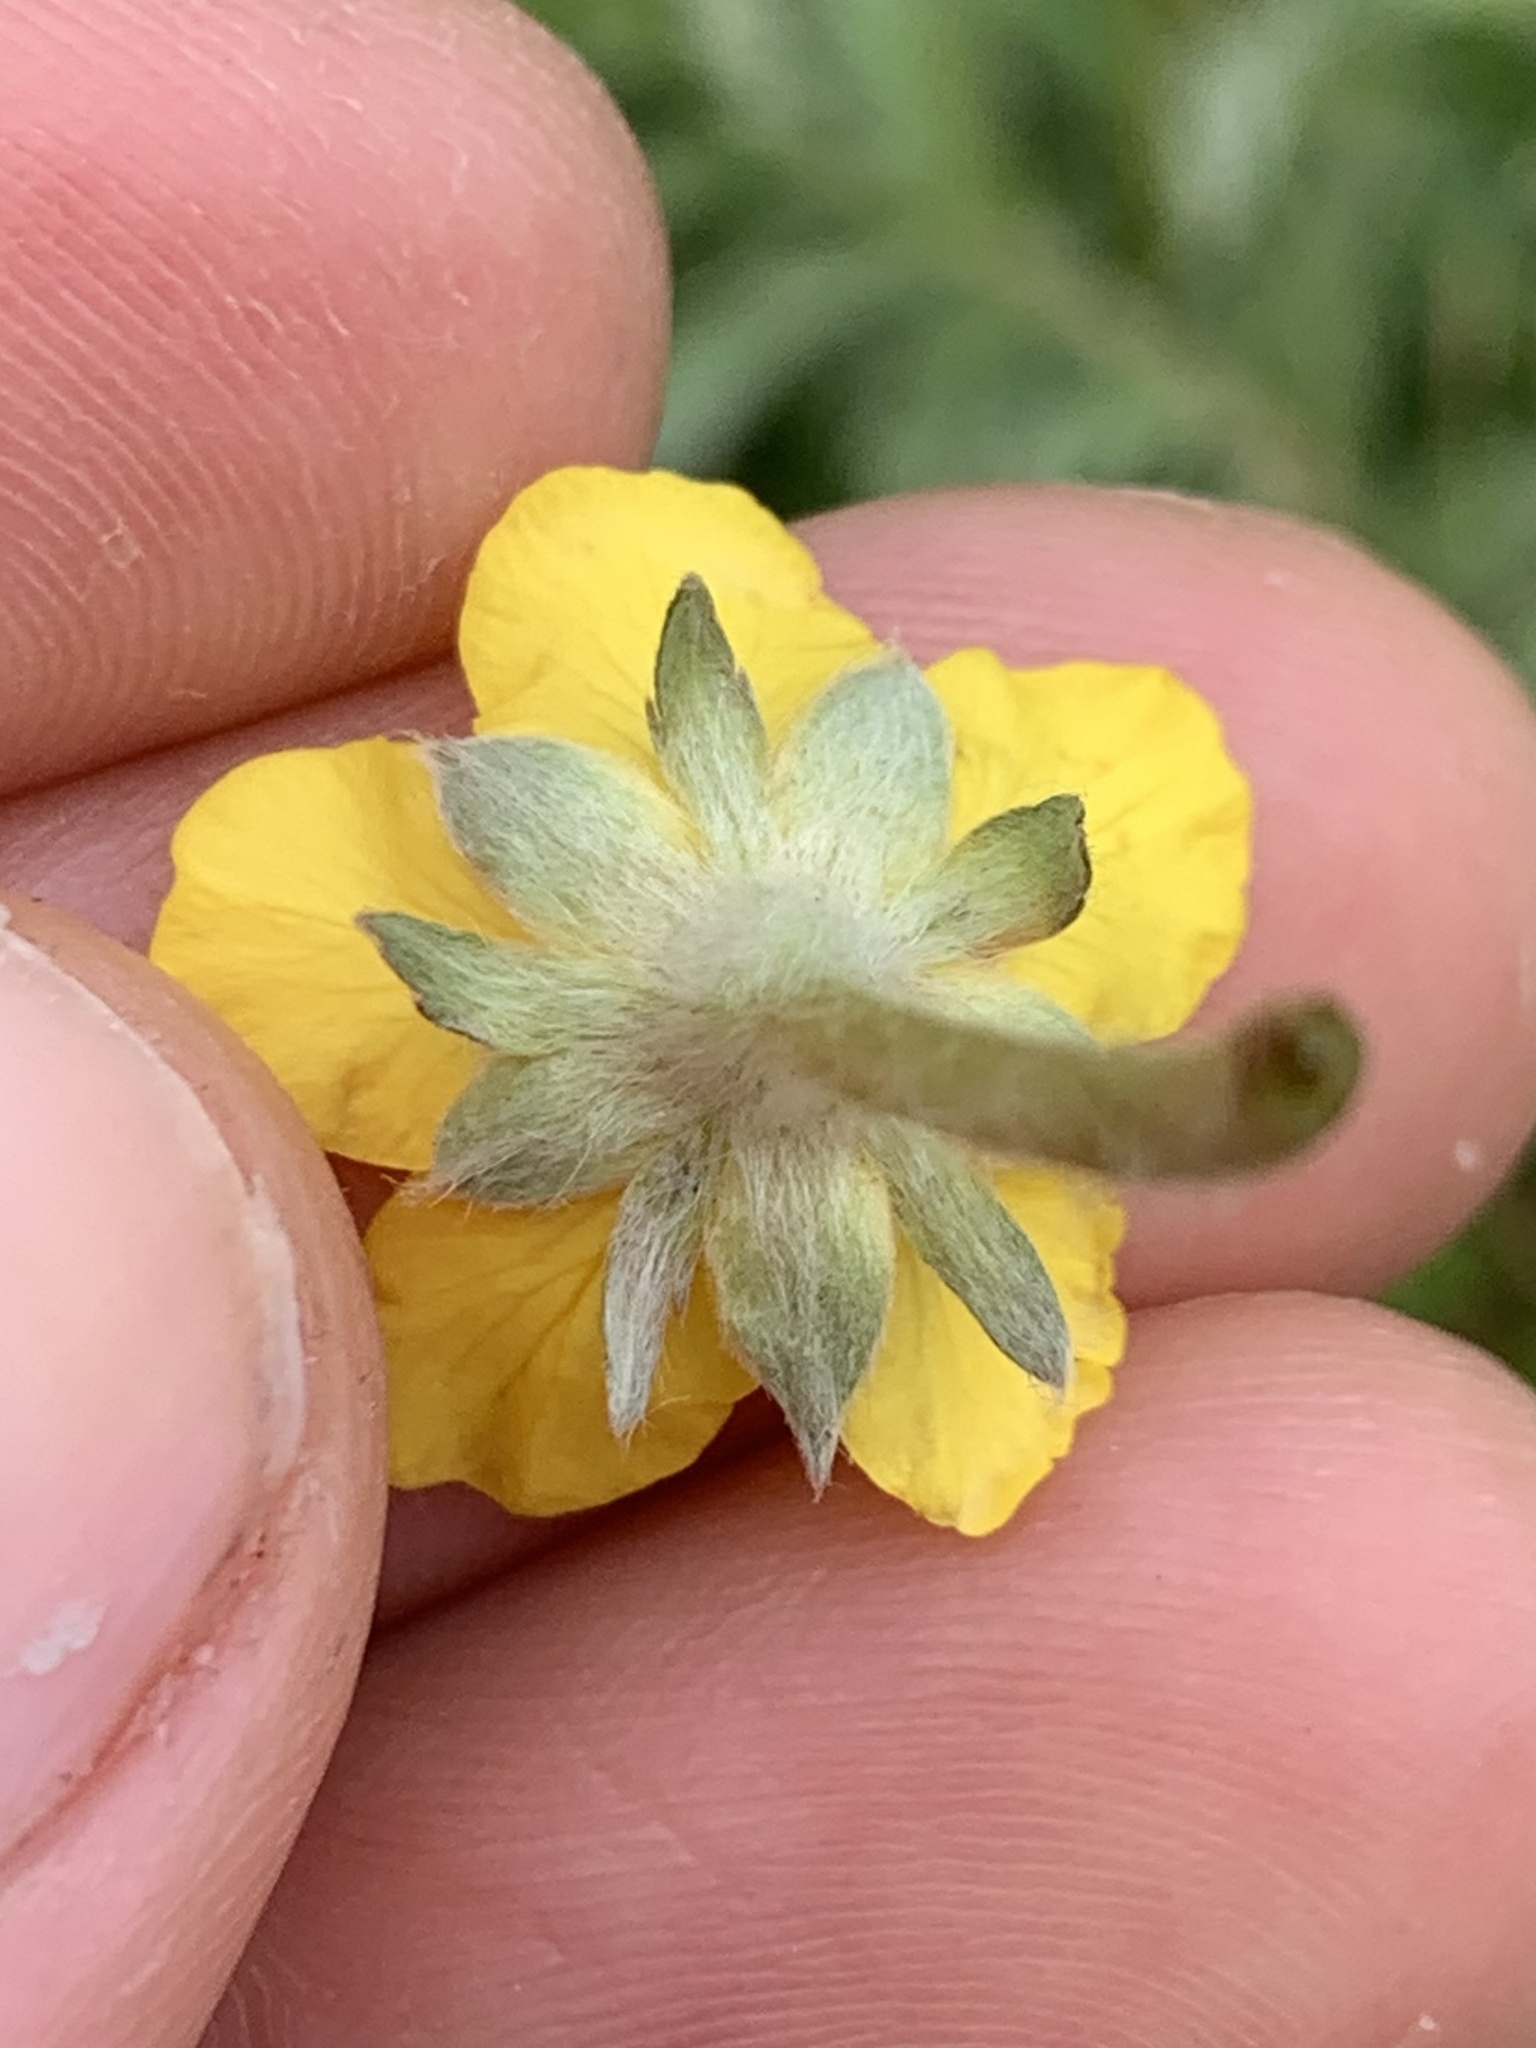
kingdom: Plantae
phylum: Tracheophyta
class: Magnoliopsida
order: Rosales
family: Rosaceae
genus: Argentina
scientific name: Argentina anserina
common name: Common silverweed
